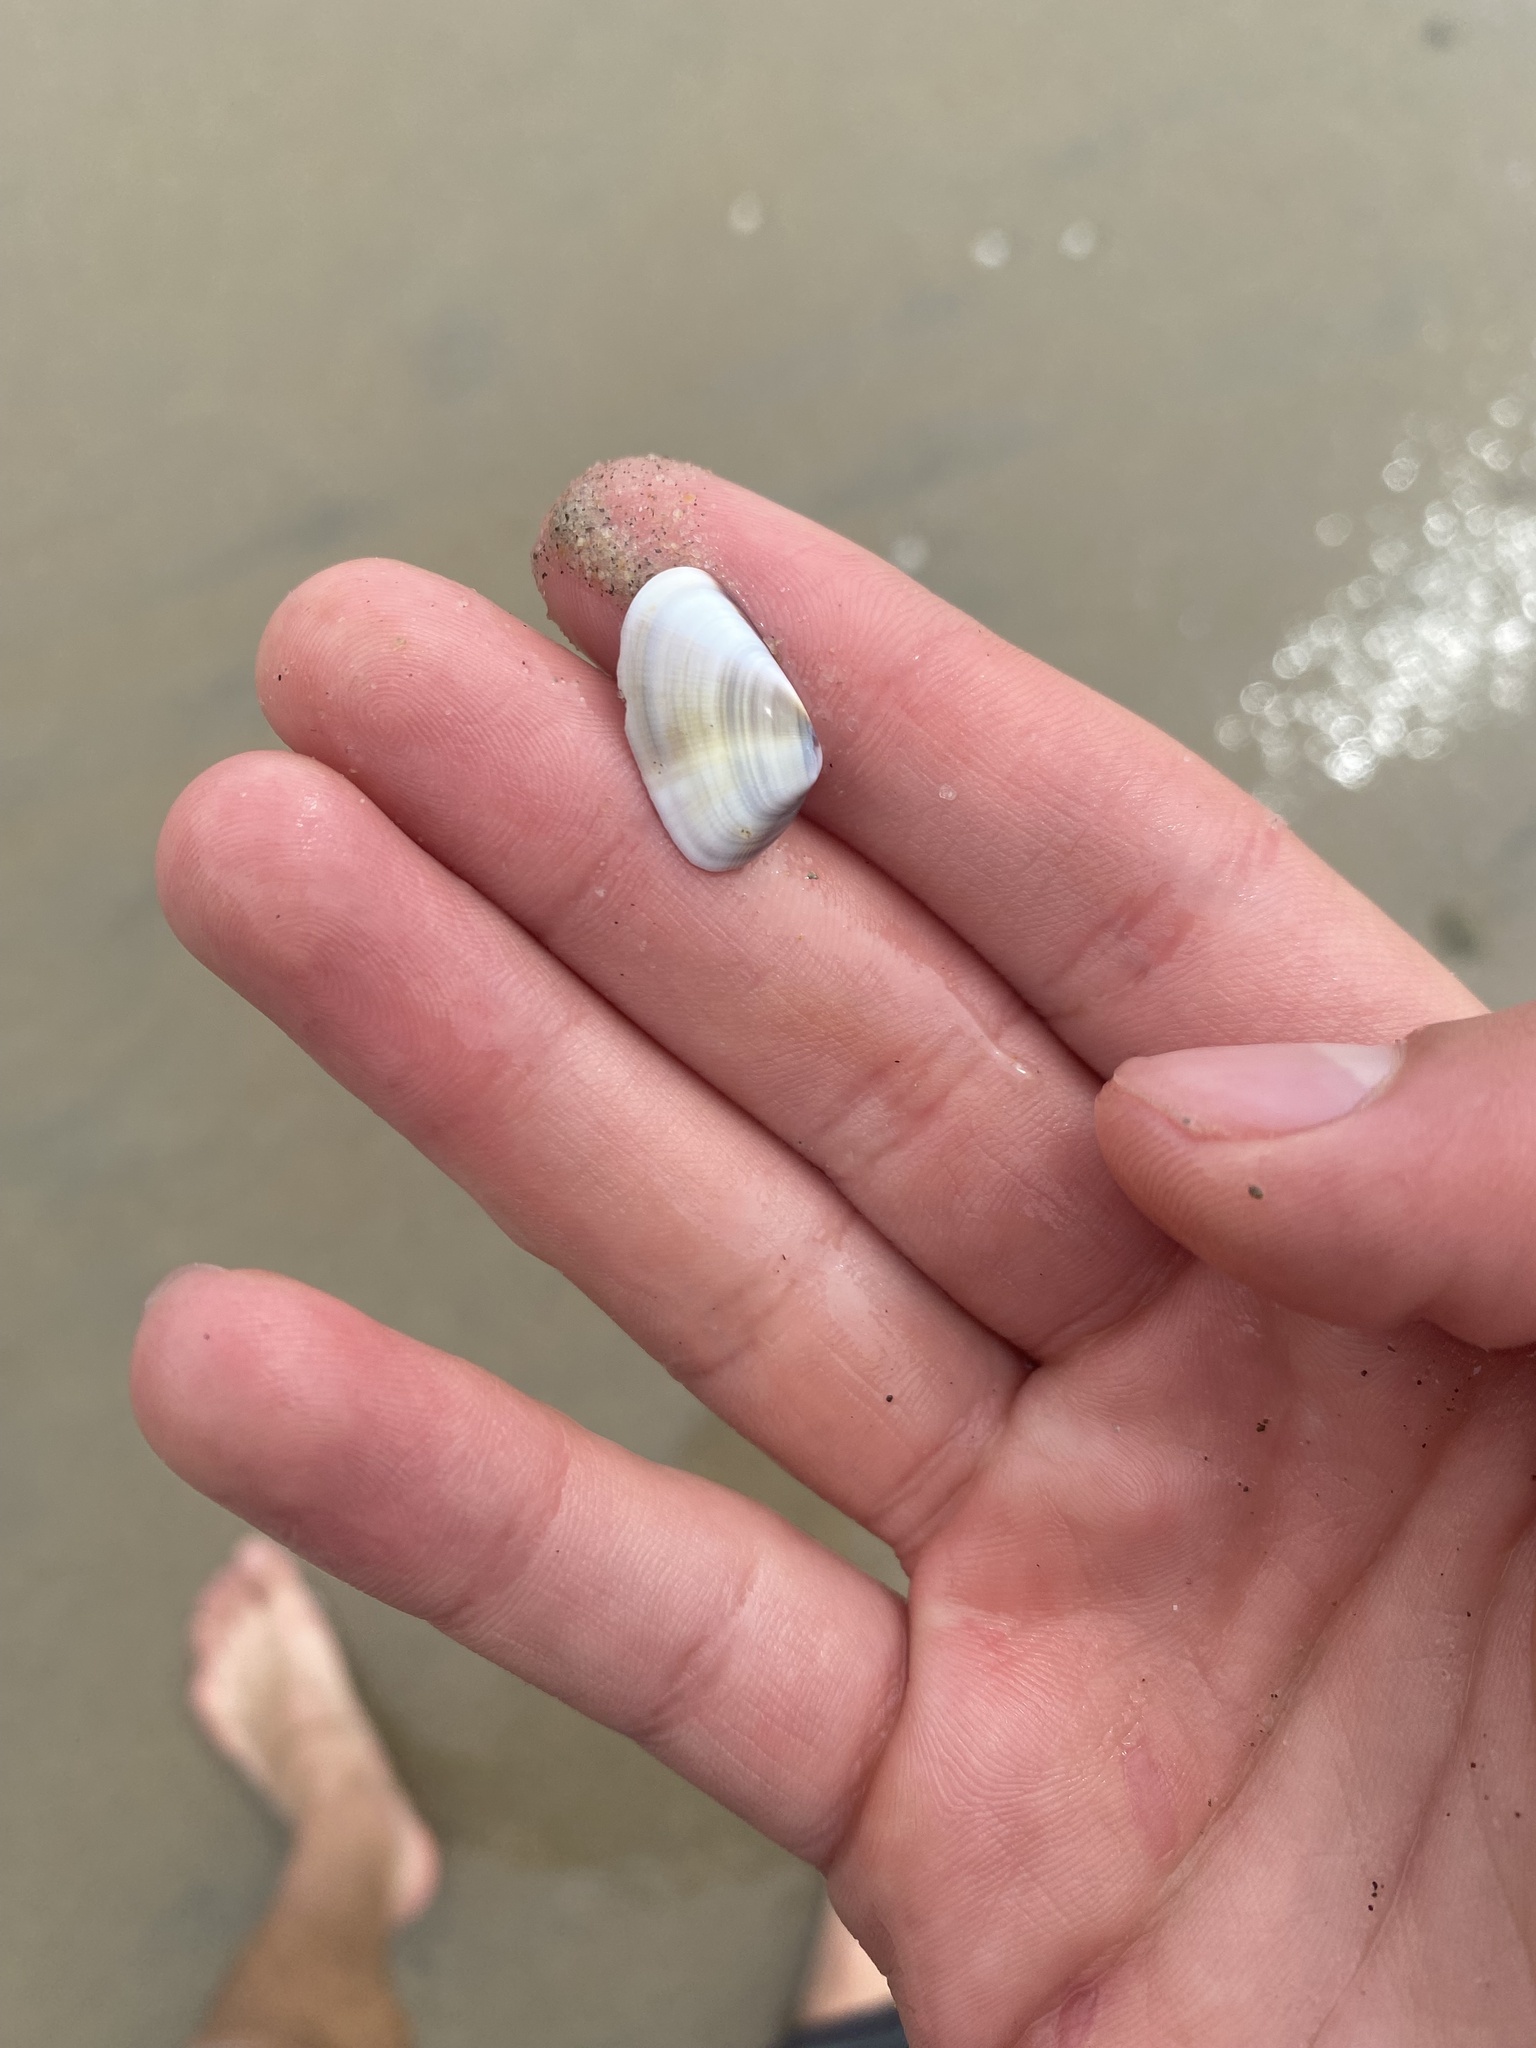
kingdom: Animalia
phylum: Mollusca
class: Bivalvia
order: Cardiida
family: Donacidae
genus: Donax
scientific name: Donax gouldii
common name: Gould beanclam
